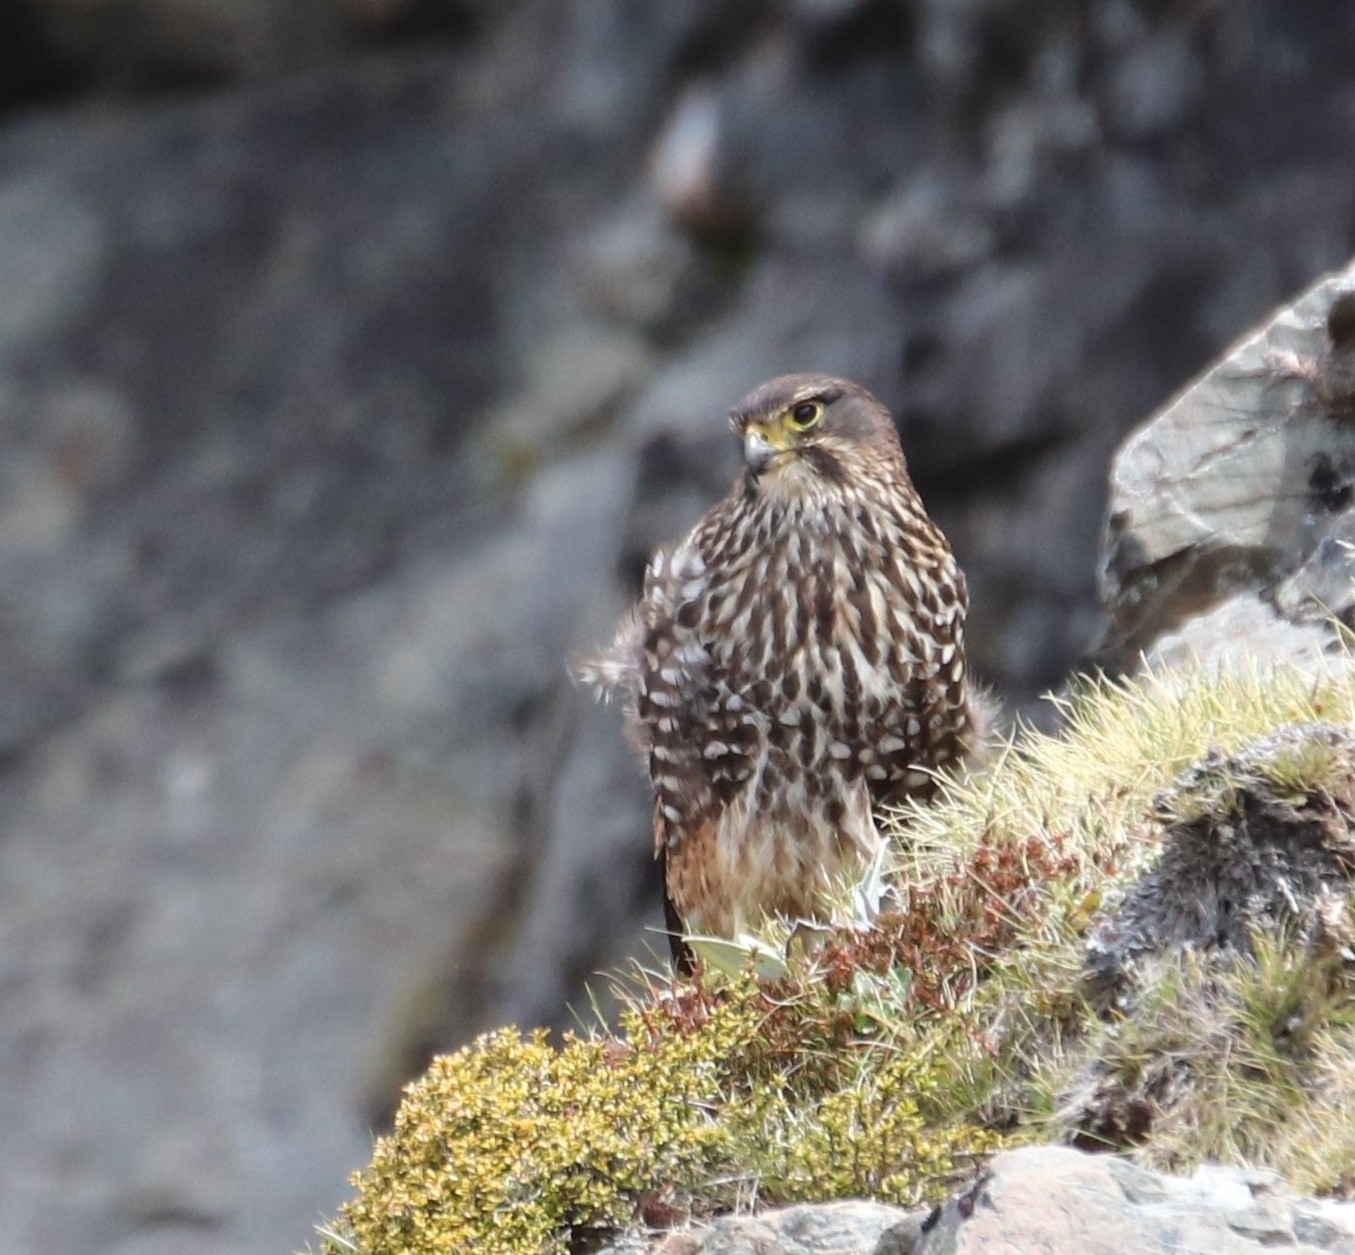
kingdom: Animalia
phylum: Chordata
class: Aves
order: Falconiformes
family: Falconidae
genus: Falco
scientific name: Falco novaeseelandiae
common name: New zealand falcon
